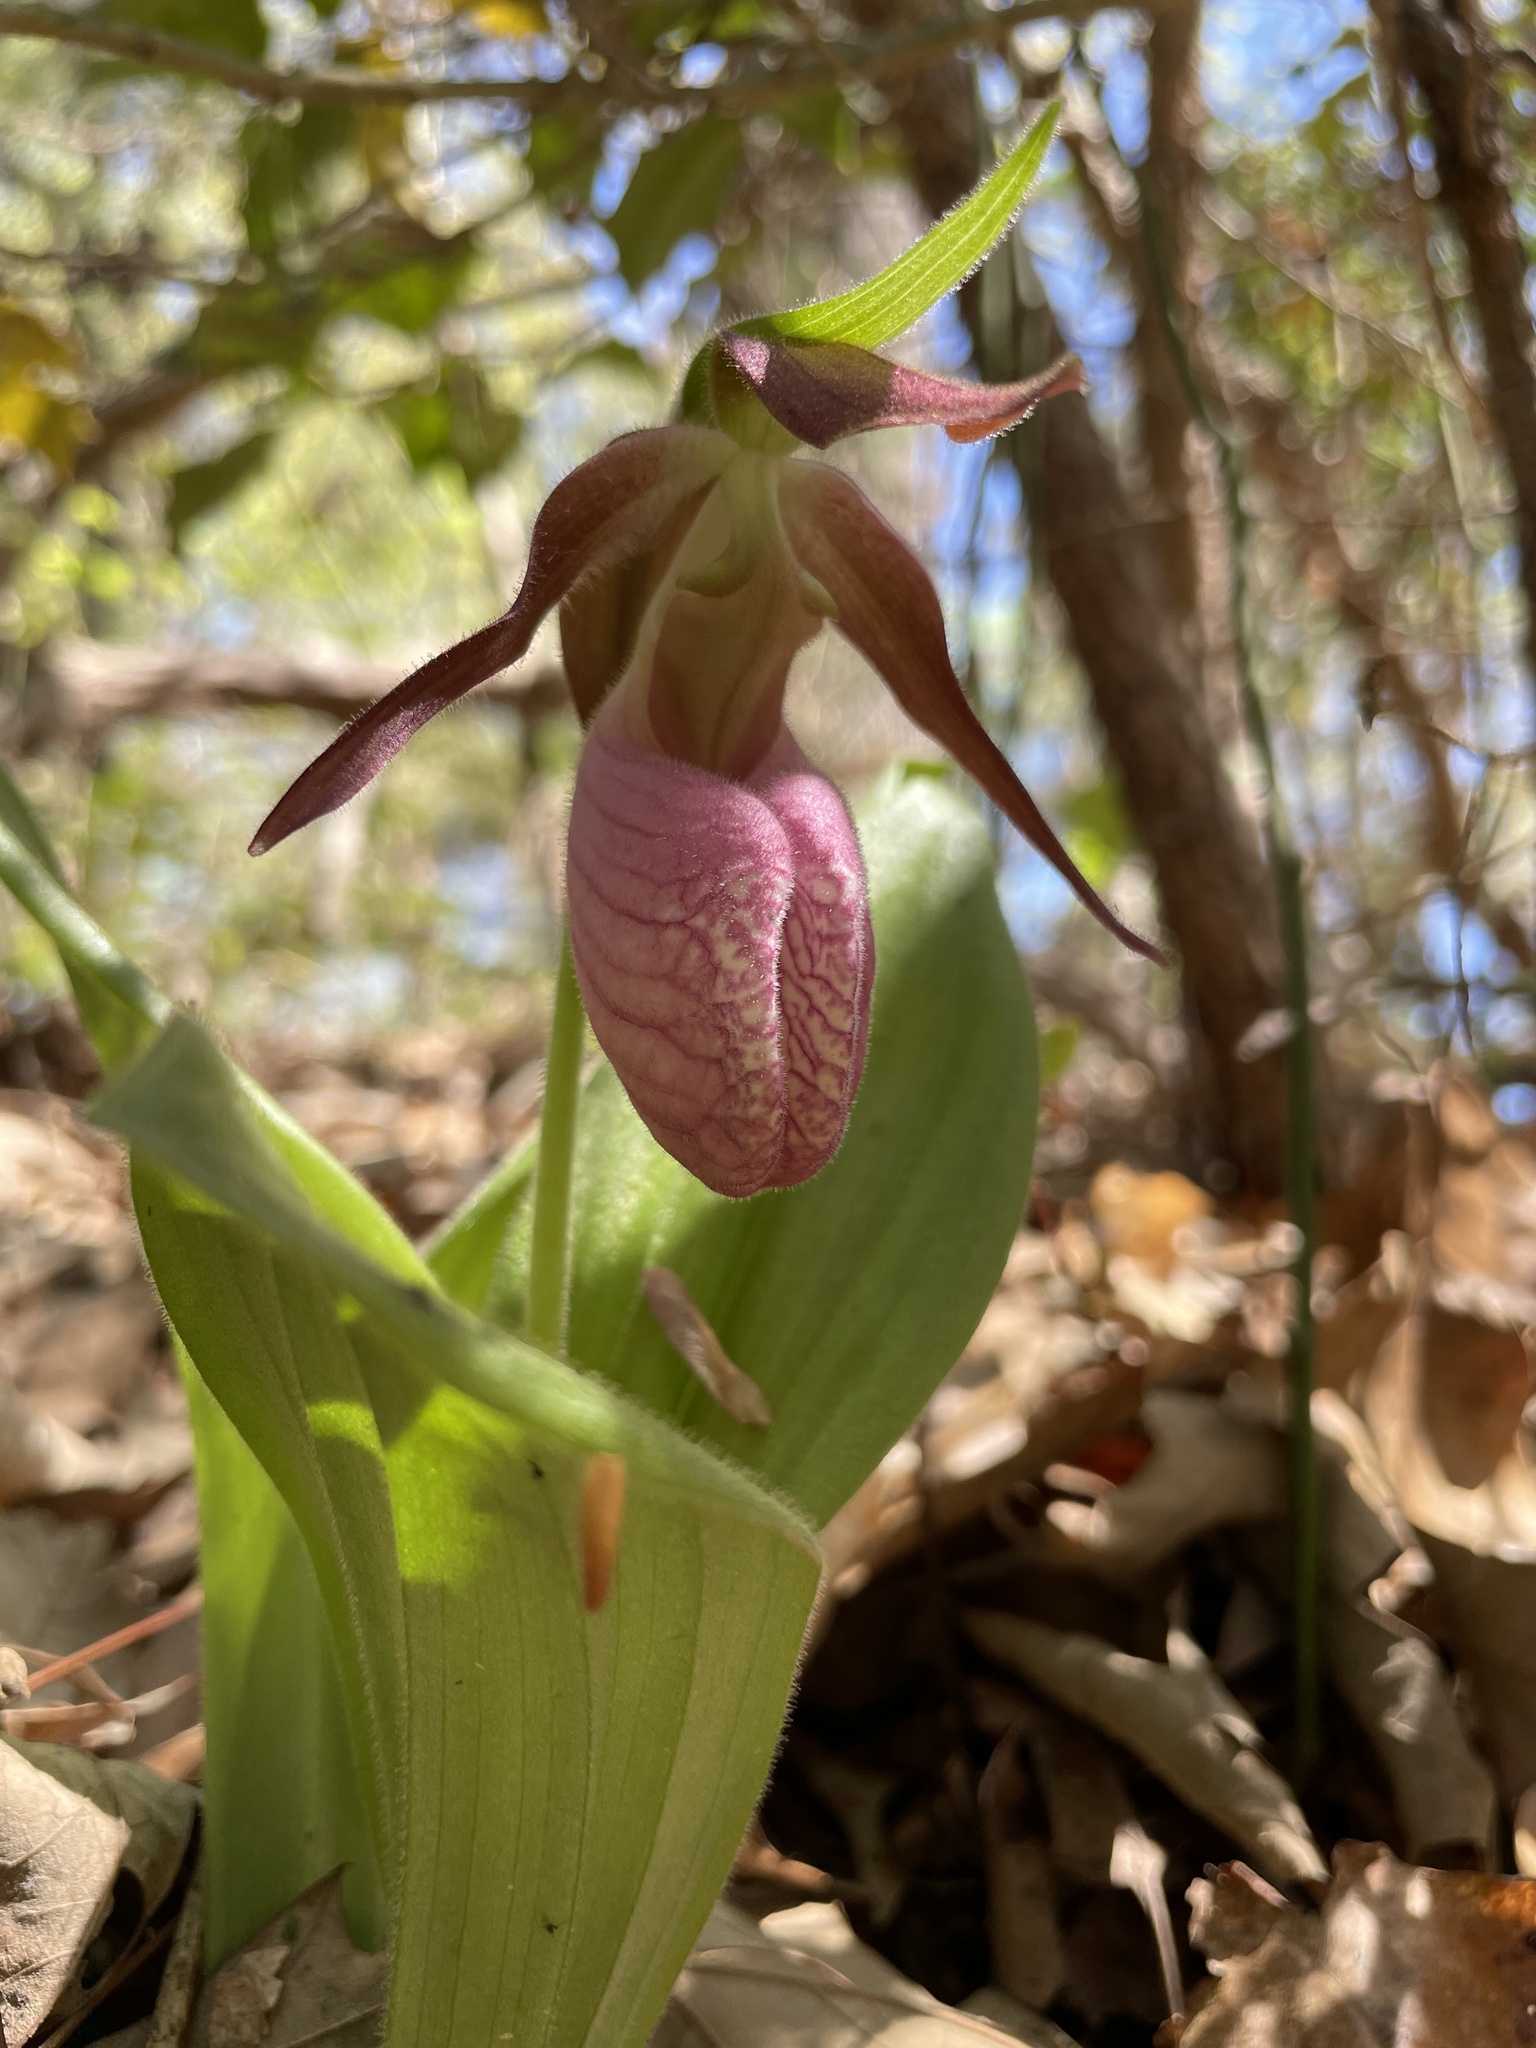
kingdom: Plantae
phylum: Tracheophyta
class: Liliopsida
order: Asparagales
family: Orchidaceae
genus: Cypripedium
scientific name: Cypripedium acaule
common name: Pink lady's-slipper
